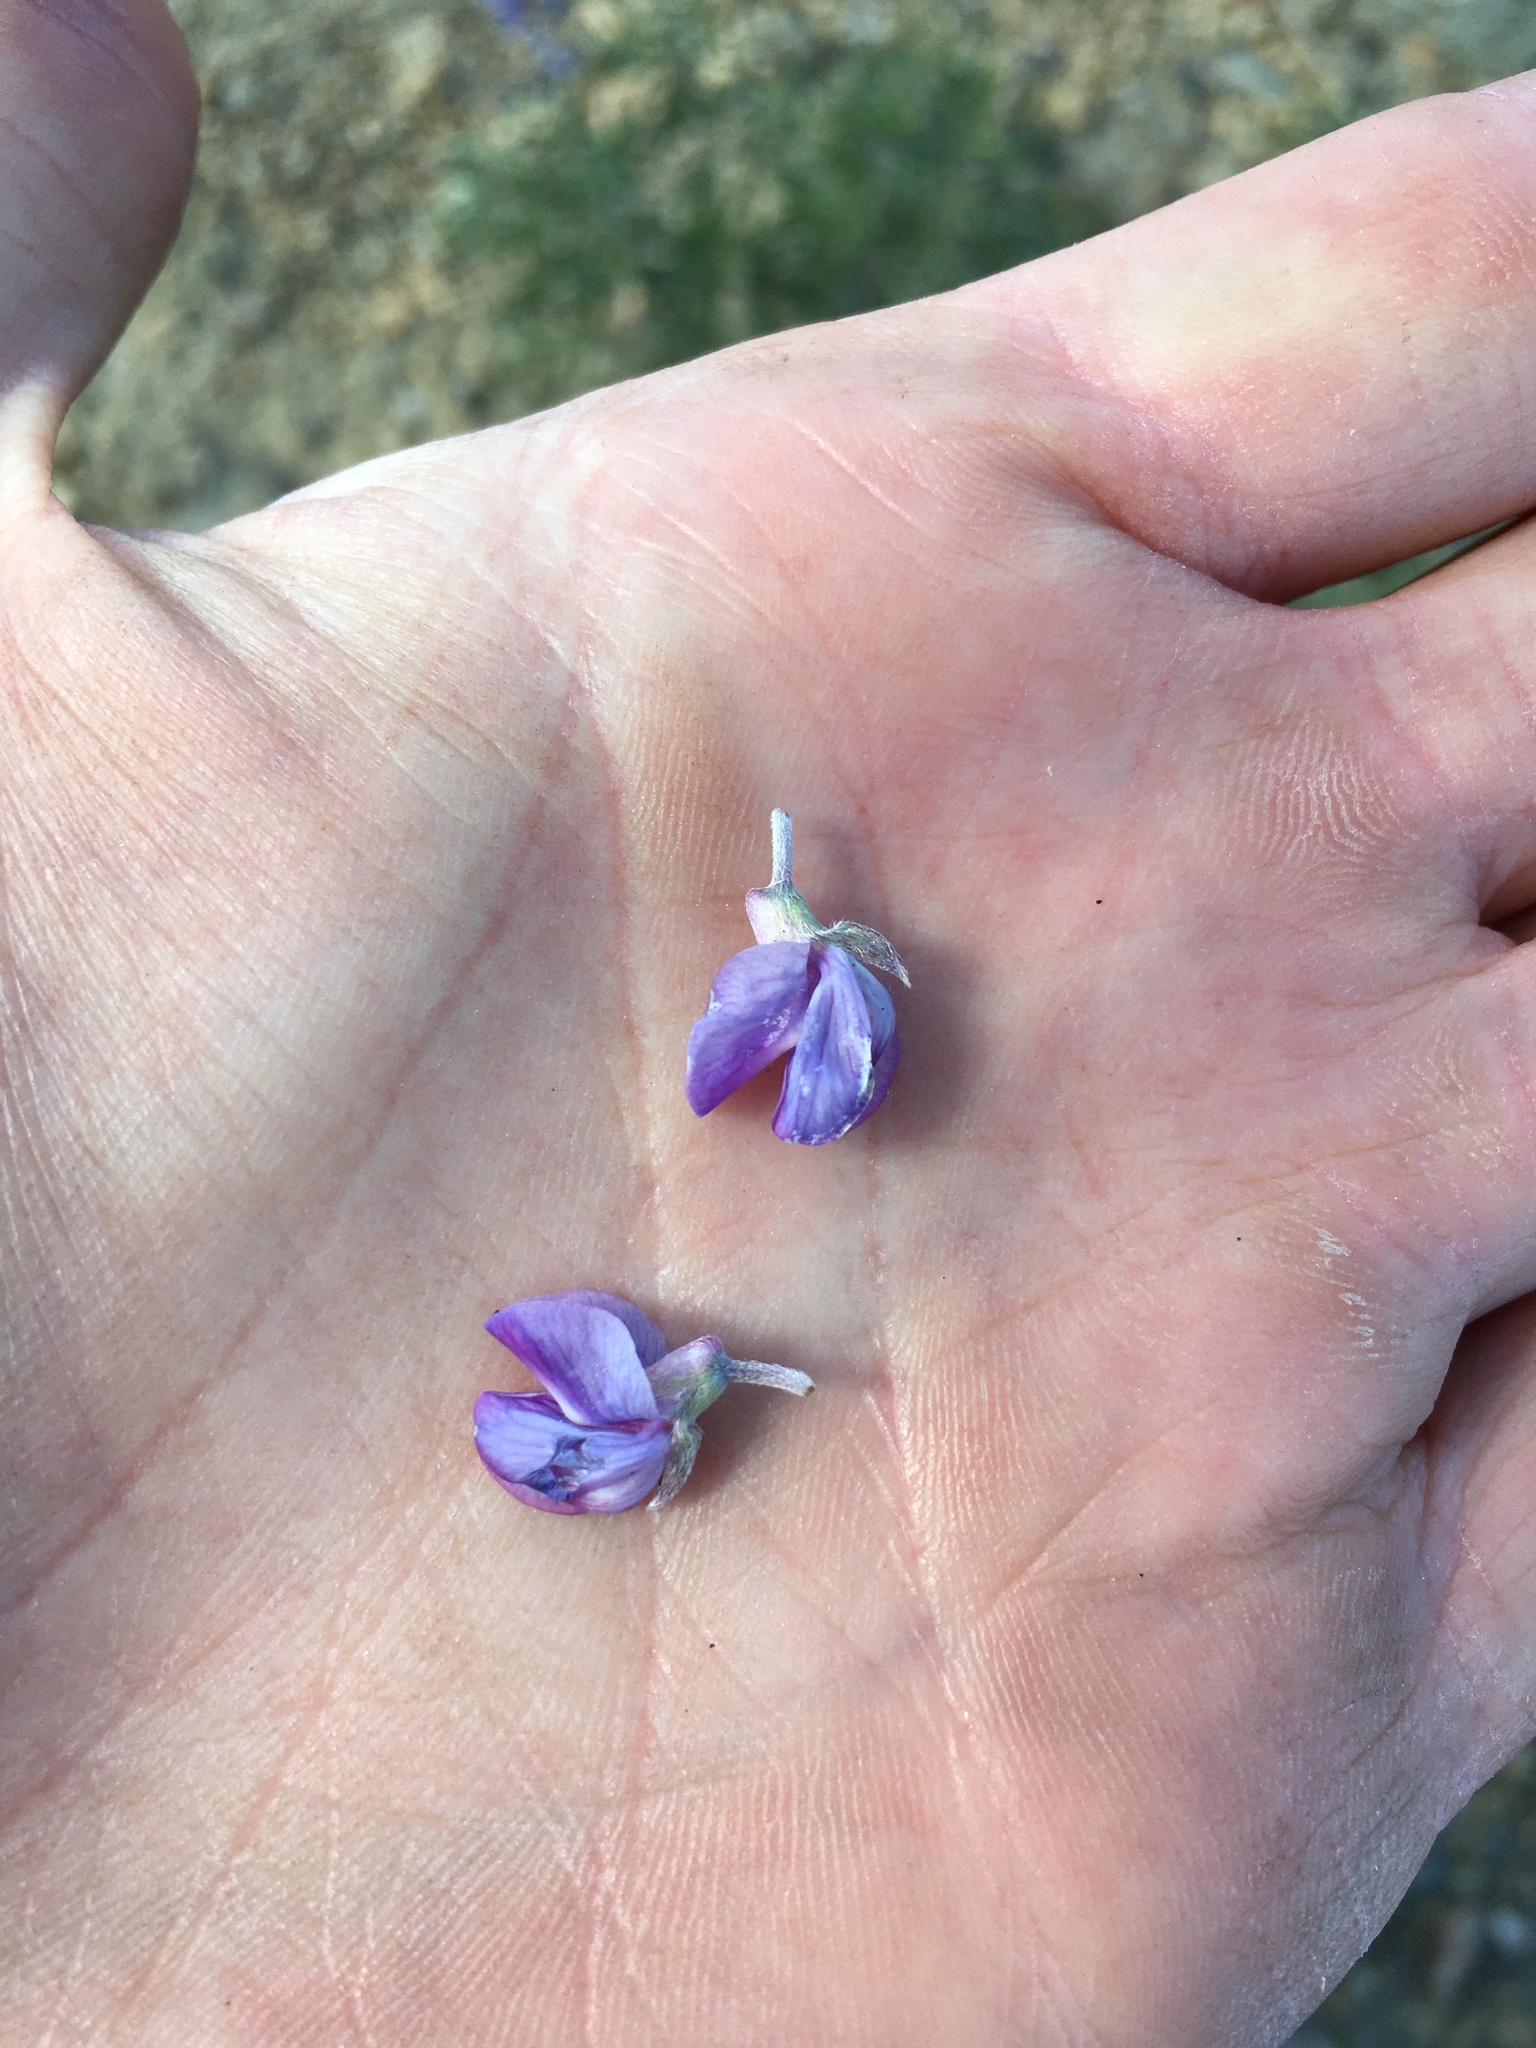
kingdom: Plantae
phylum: Tracheophyta
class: Magnoliopsida
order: Fabales
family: Fabaceae
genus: Lupinus
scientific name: Lupinus argenteus
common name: Silvery lupine
